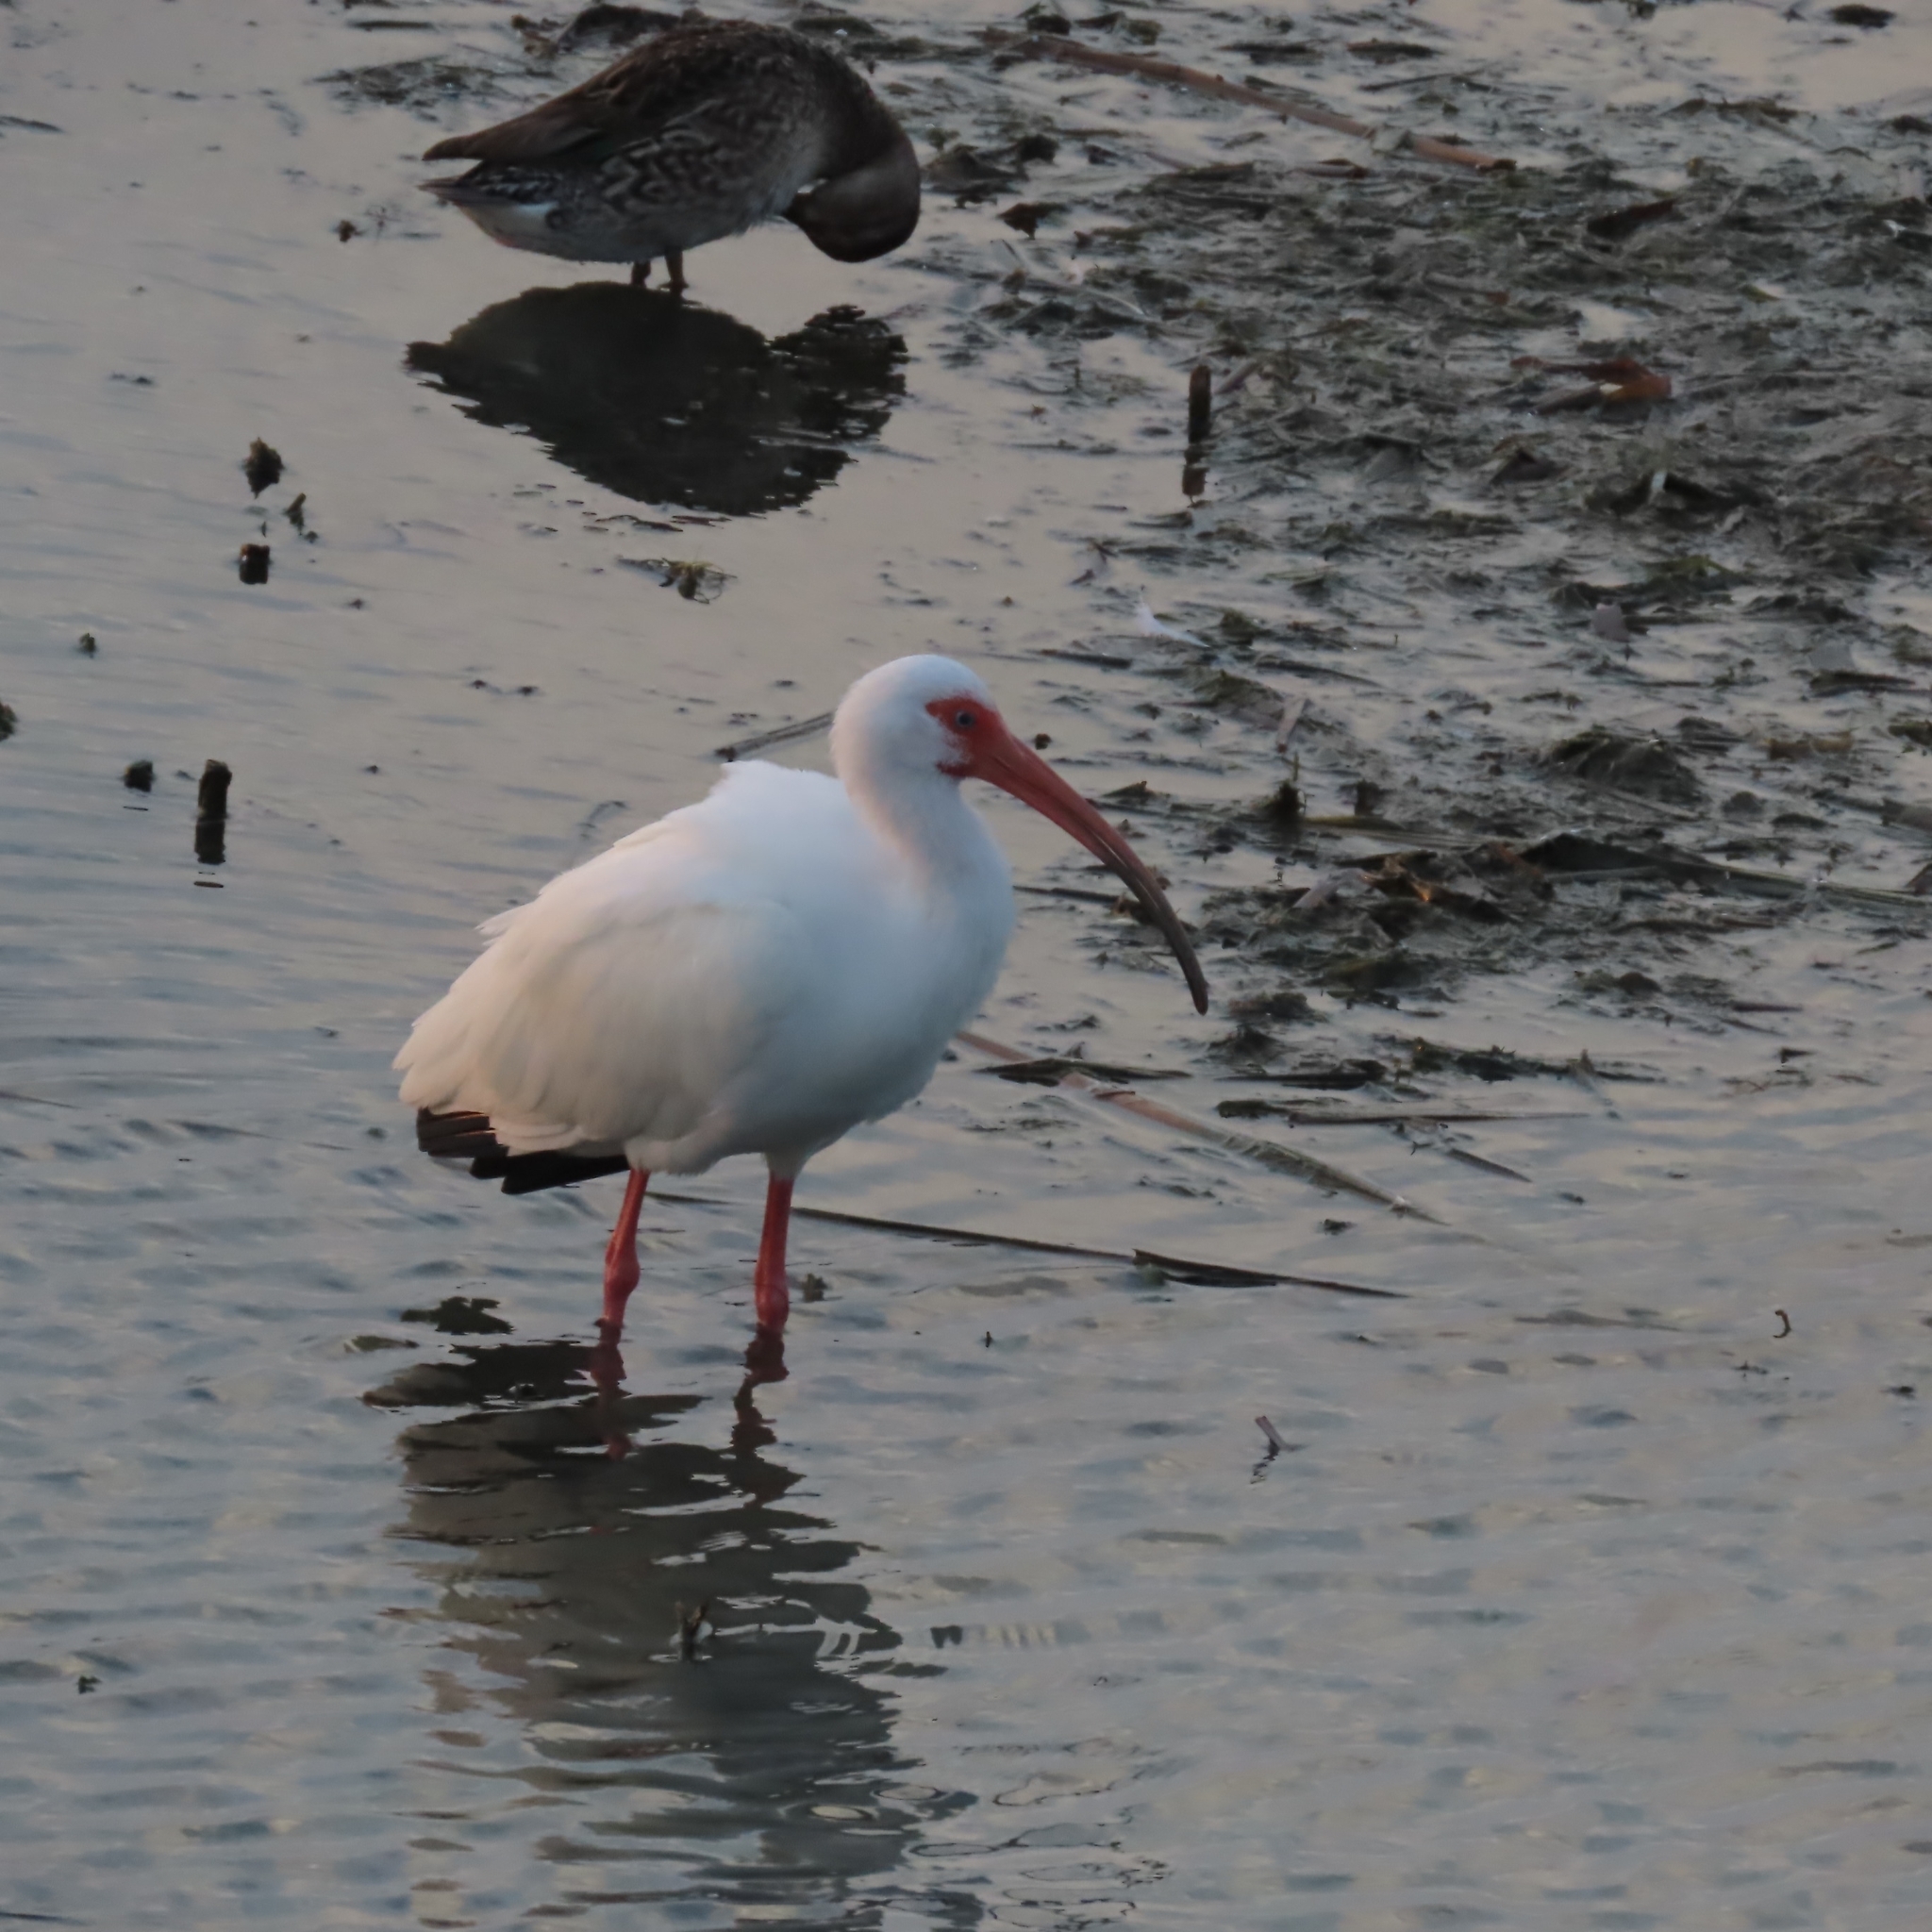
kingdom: Animalia
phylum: Chordata
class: Aves
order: Pelecaniformes
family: Threskiornithidae
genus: Eudocimus
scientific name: Eudocimus albus
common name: White ibis
